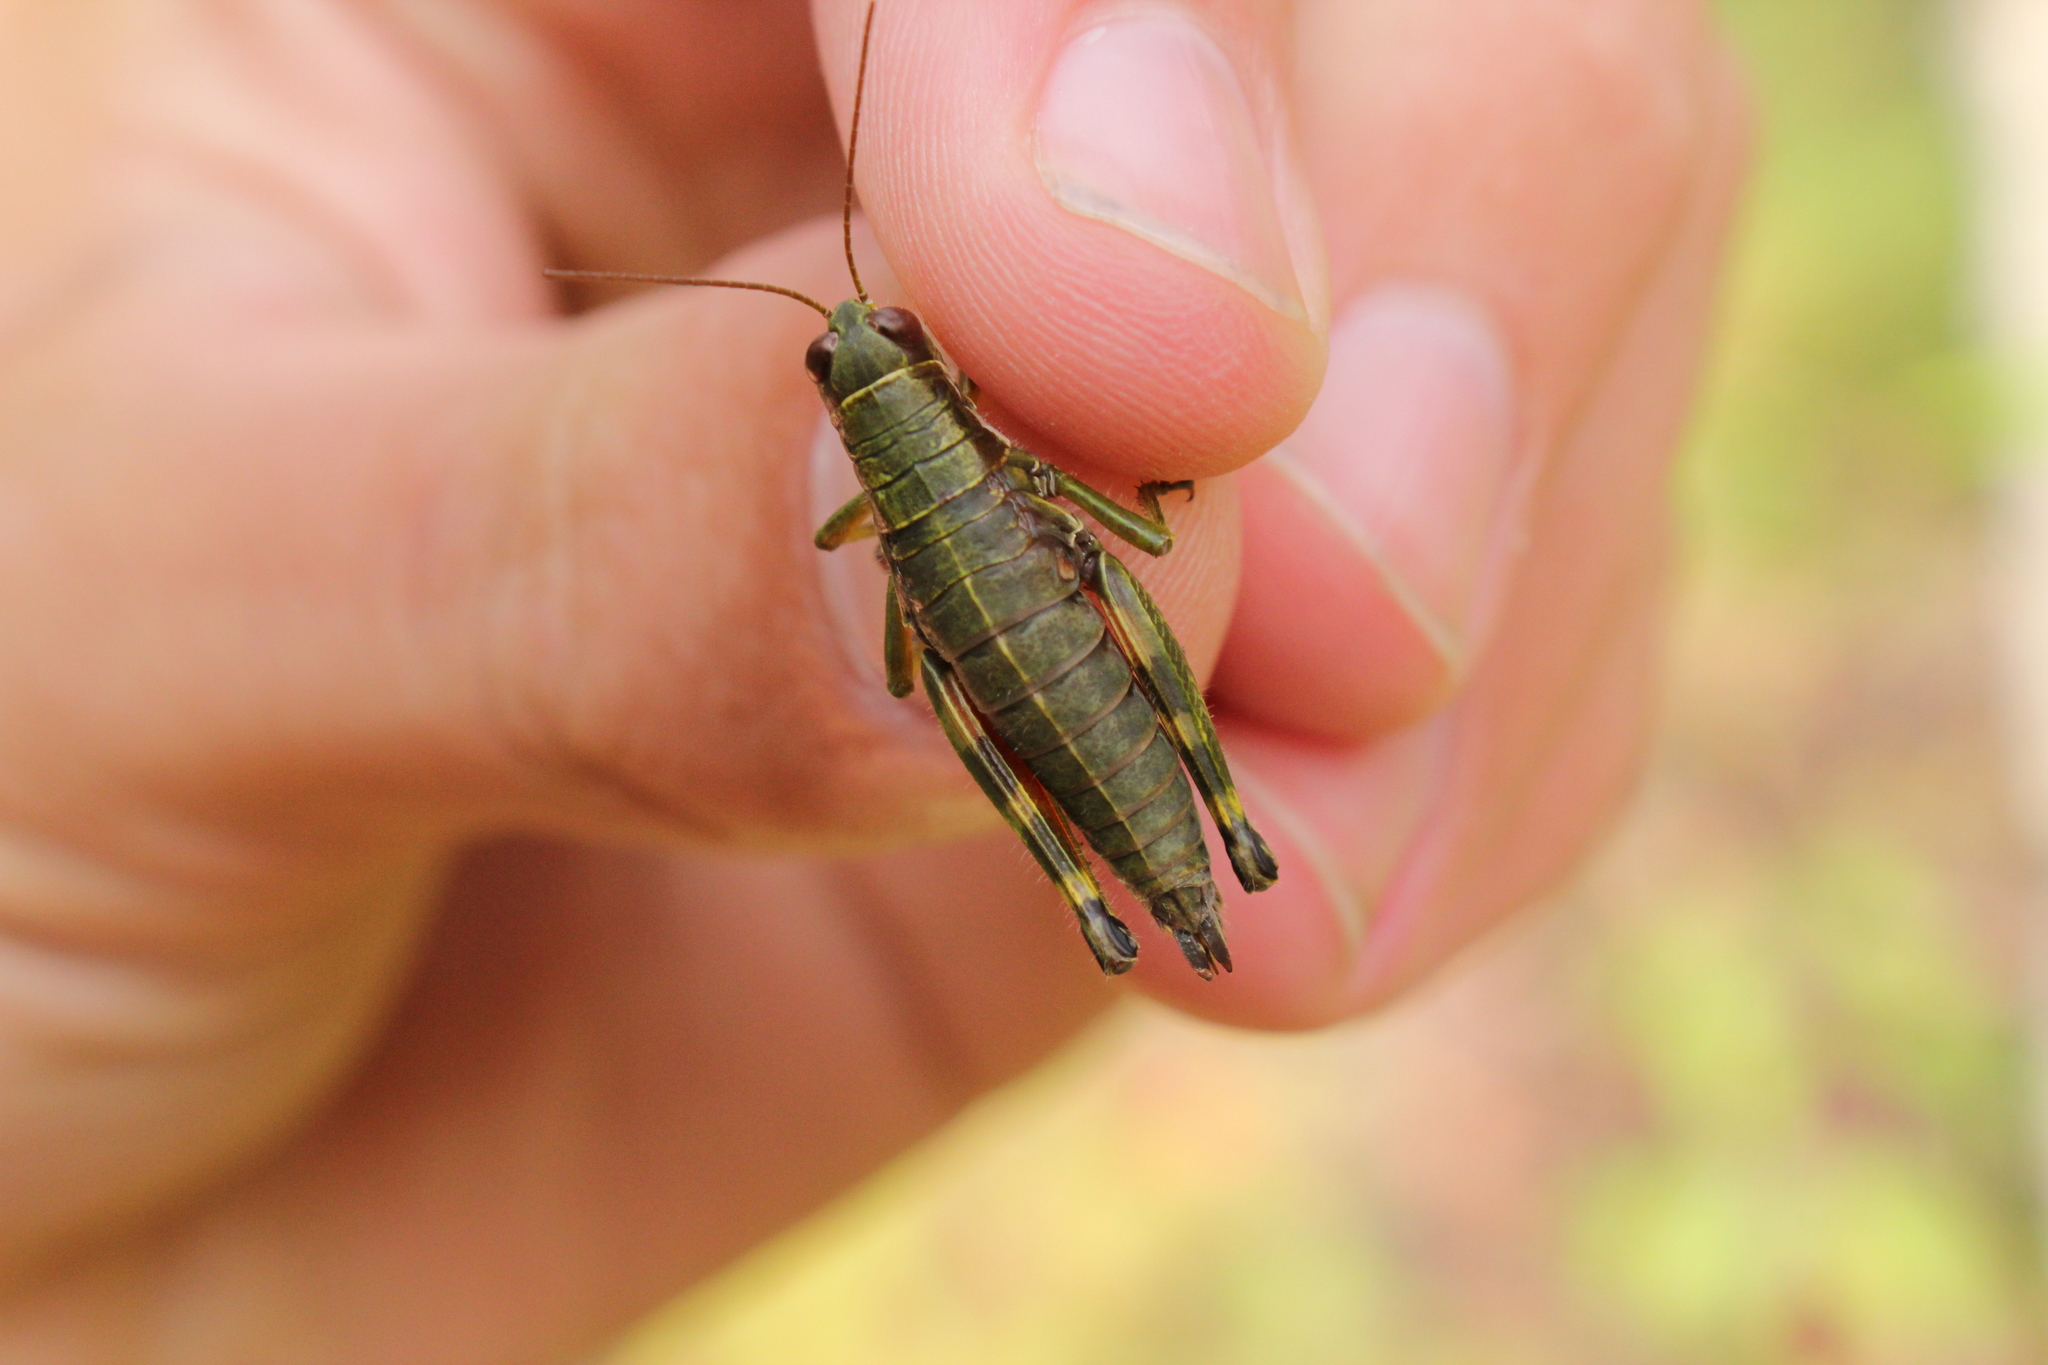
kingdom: Animalia
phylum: Arthropoda
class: Insecta
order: Orthoptera
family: Acrididae
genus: Booneacris
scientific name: Booneacris glacialis
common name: Wingless mountain grasshopper
